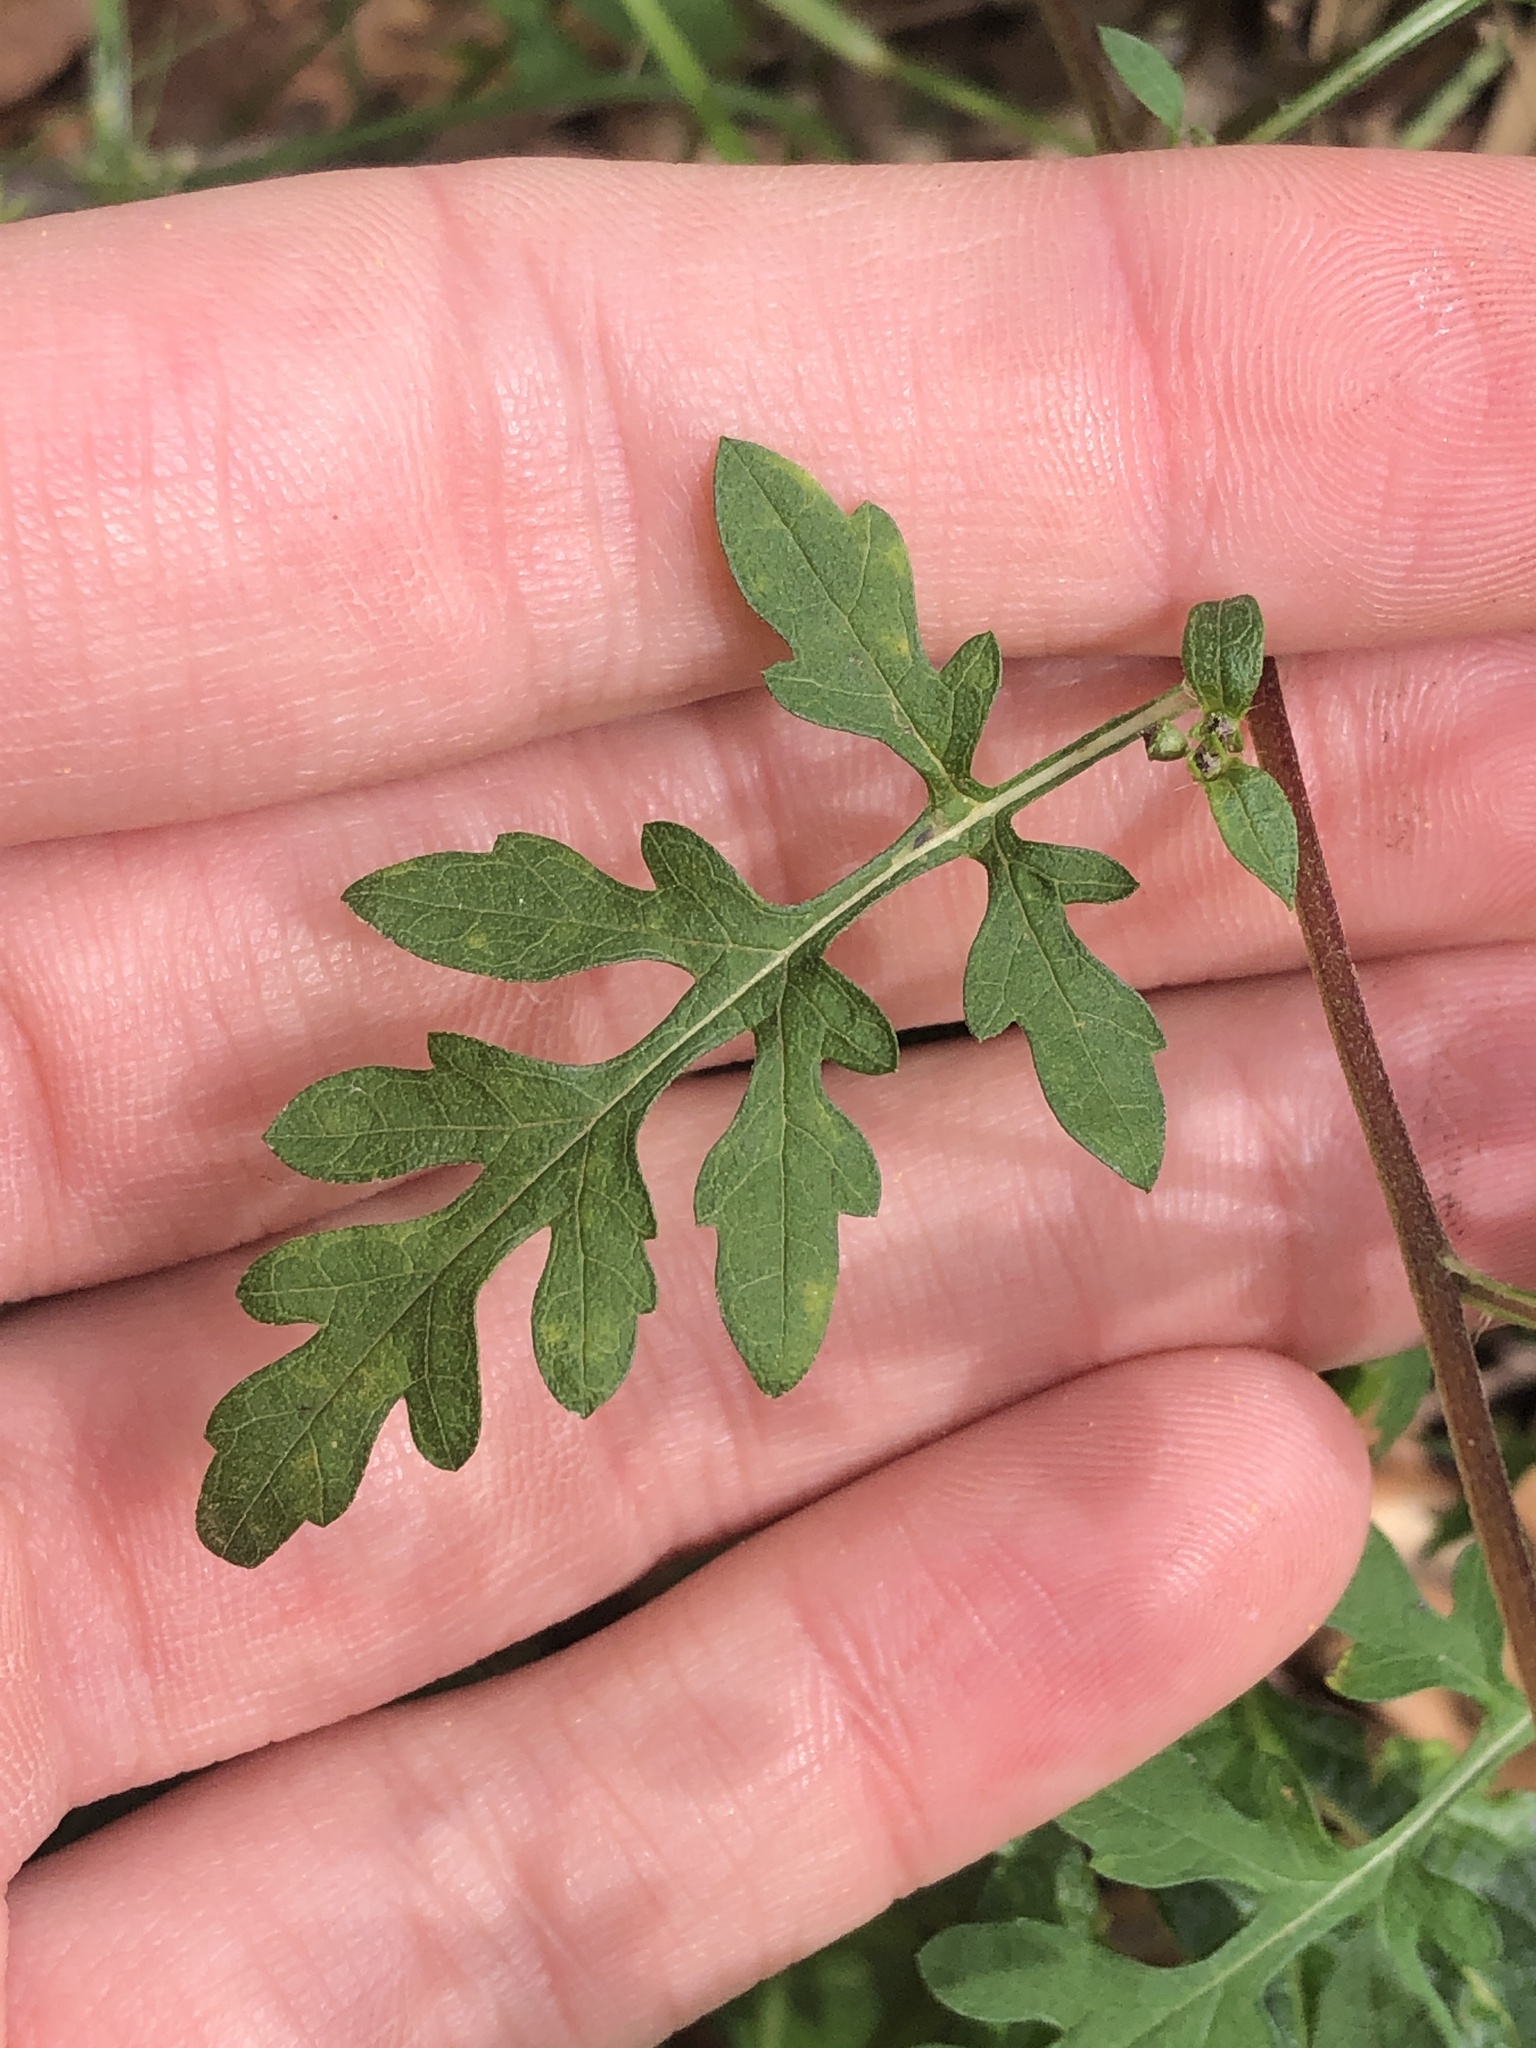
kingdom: Plantae
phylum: Tracheophyta
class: Magnoliopsida
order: Asterales
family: Asteraceae
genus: Ambrosia
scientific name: Ambrosia artemisiifolia
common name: Annual ragweed
